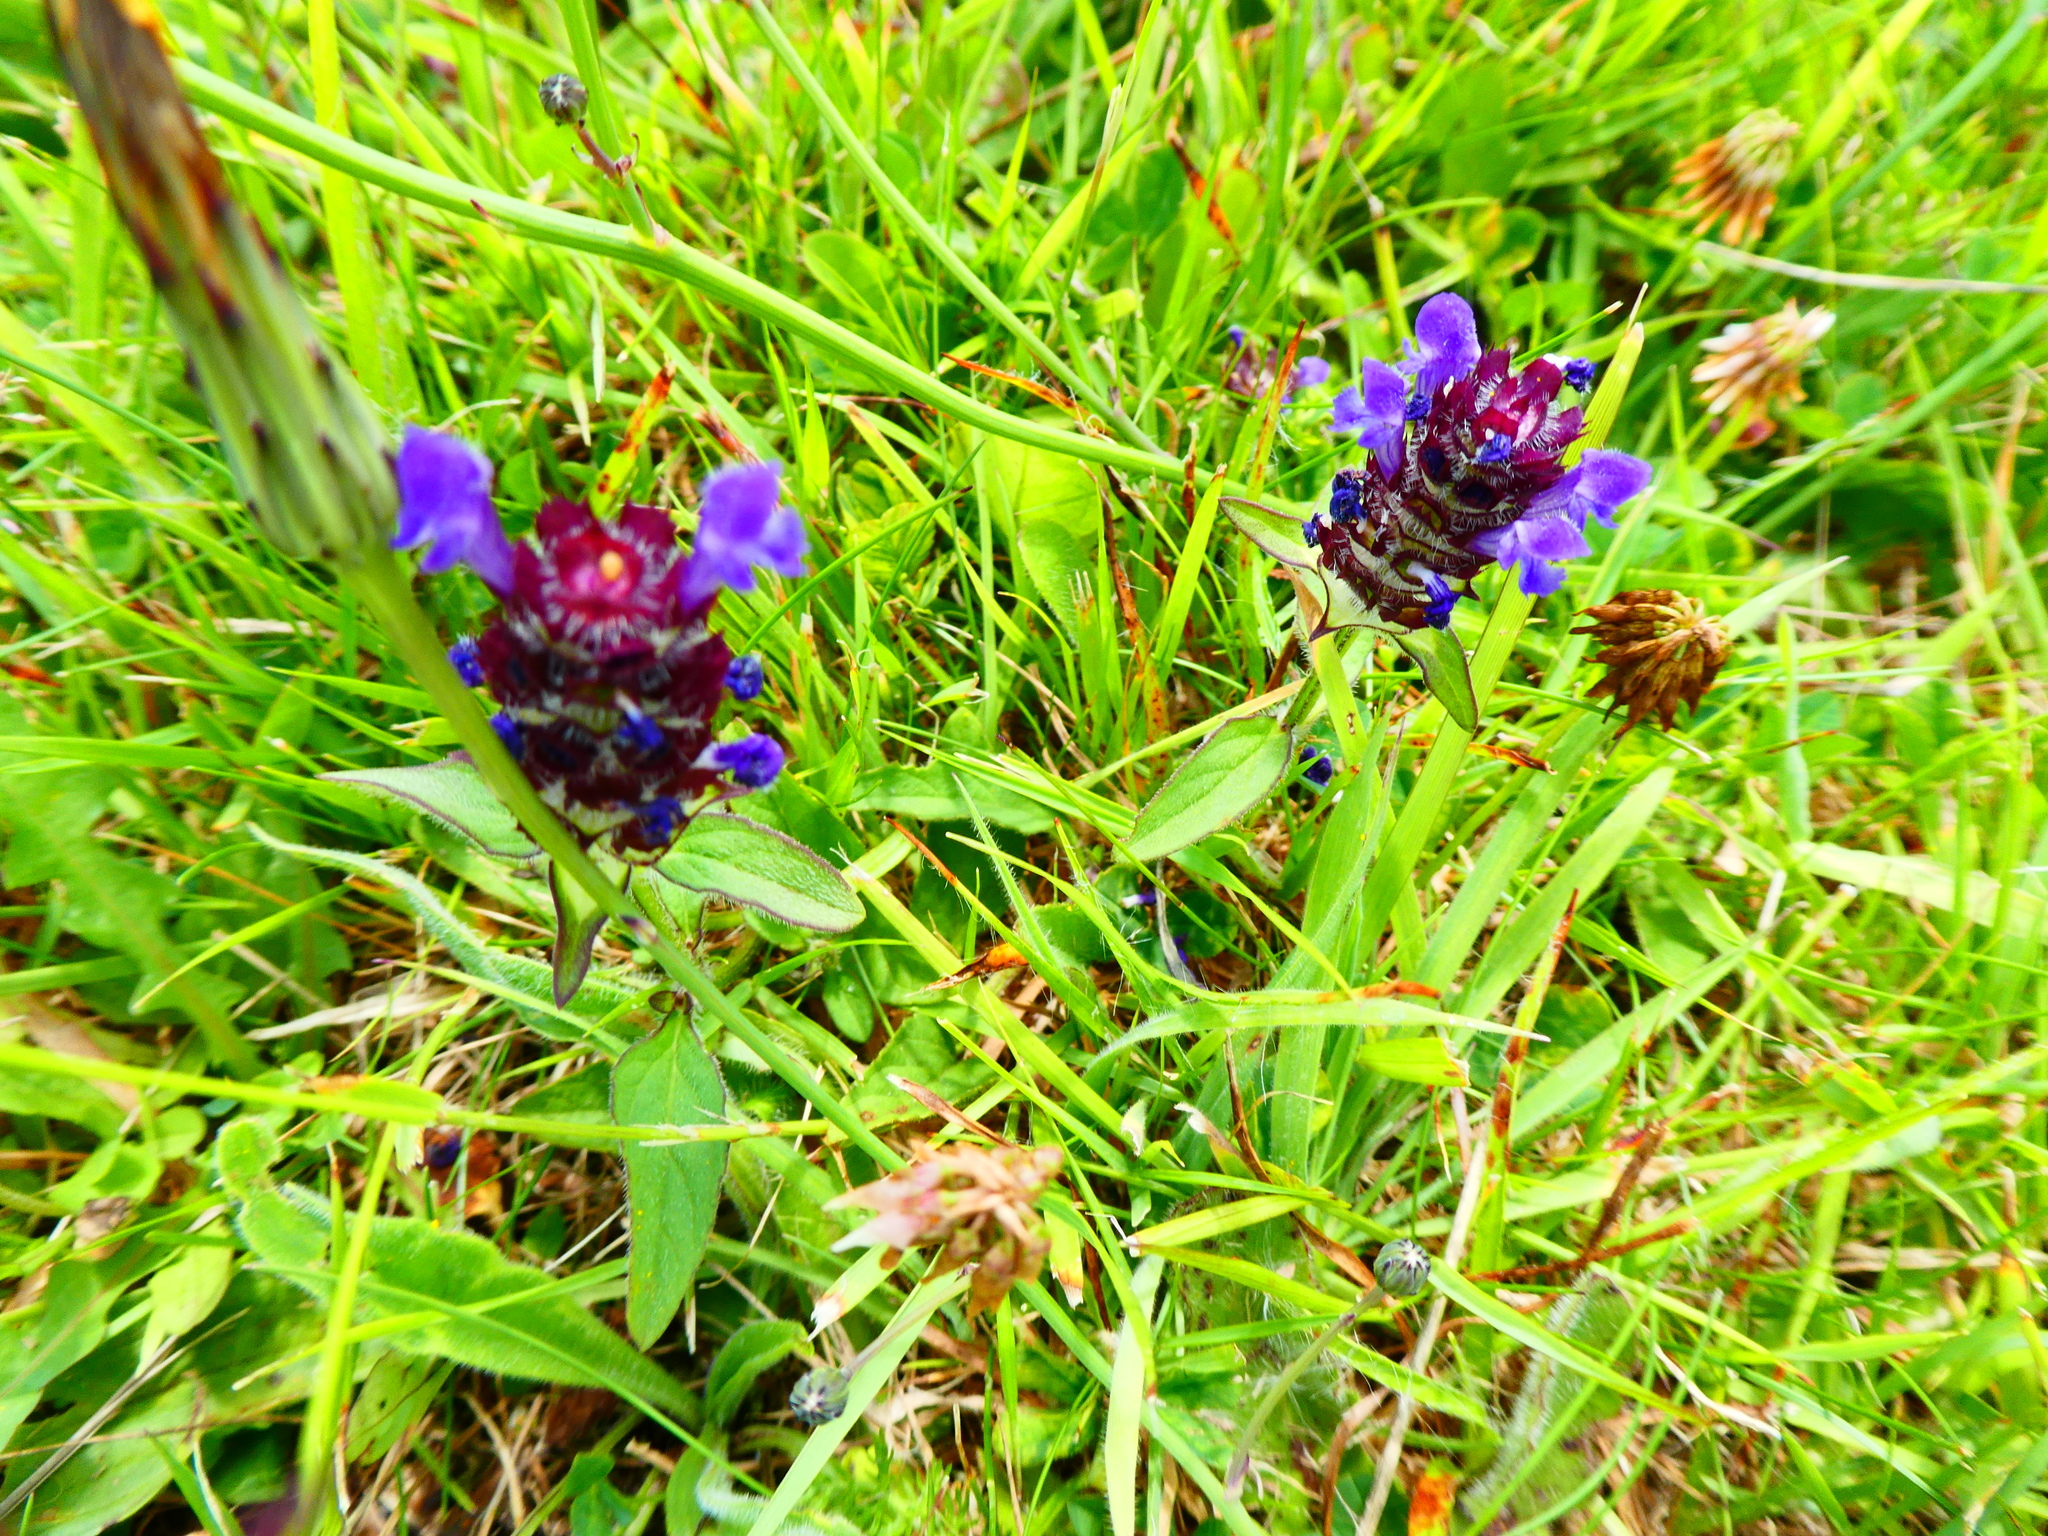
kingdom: Plantae
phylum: Tracheophyta
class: Magnoliopsida
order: Lamiales
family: Lamiaceae
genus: Prunella
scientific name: Prunella vulgaris
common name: Heal-all
